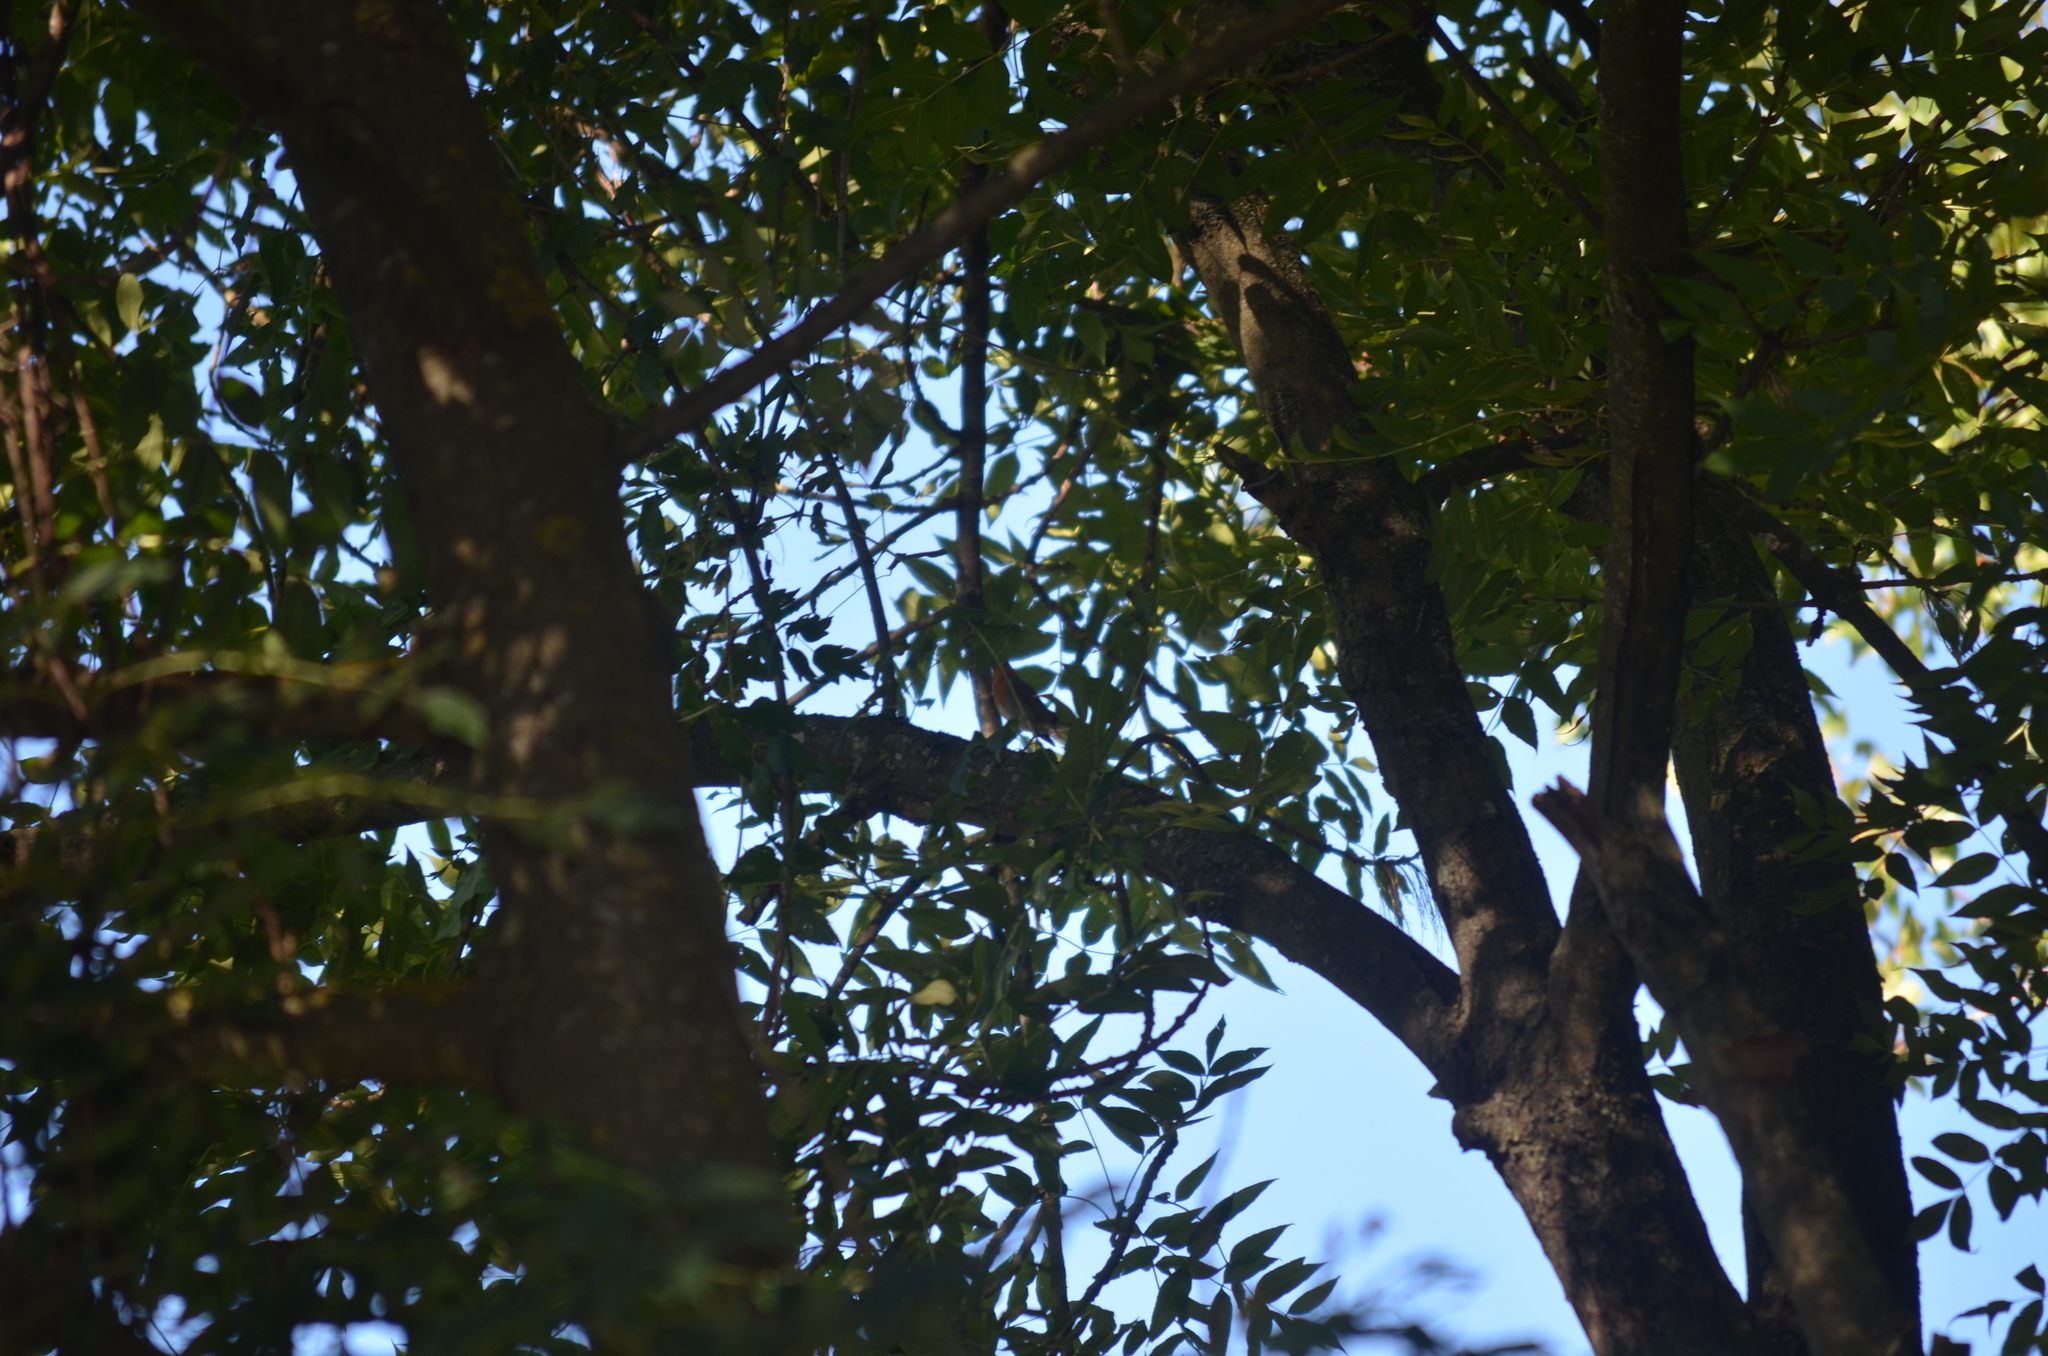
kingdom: Animalia
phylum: Chordata
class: Aves
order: Passeriformes
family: Muscicapidae
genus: Erithacus
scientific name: Erithacus rubecula
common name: European robin
